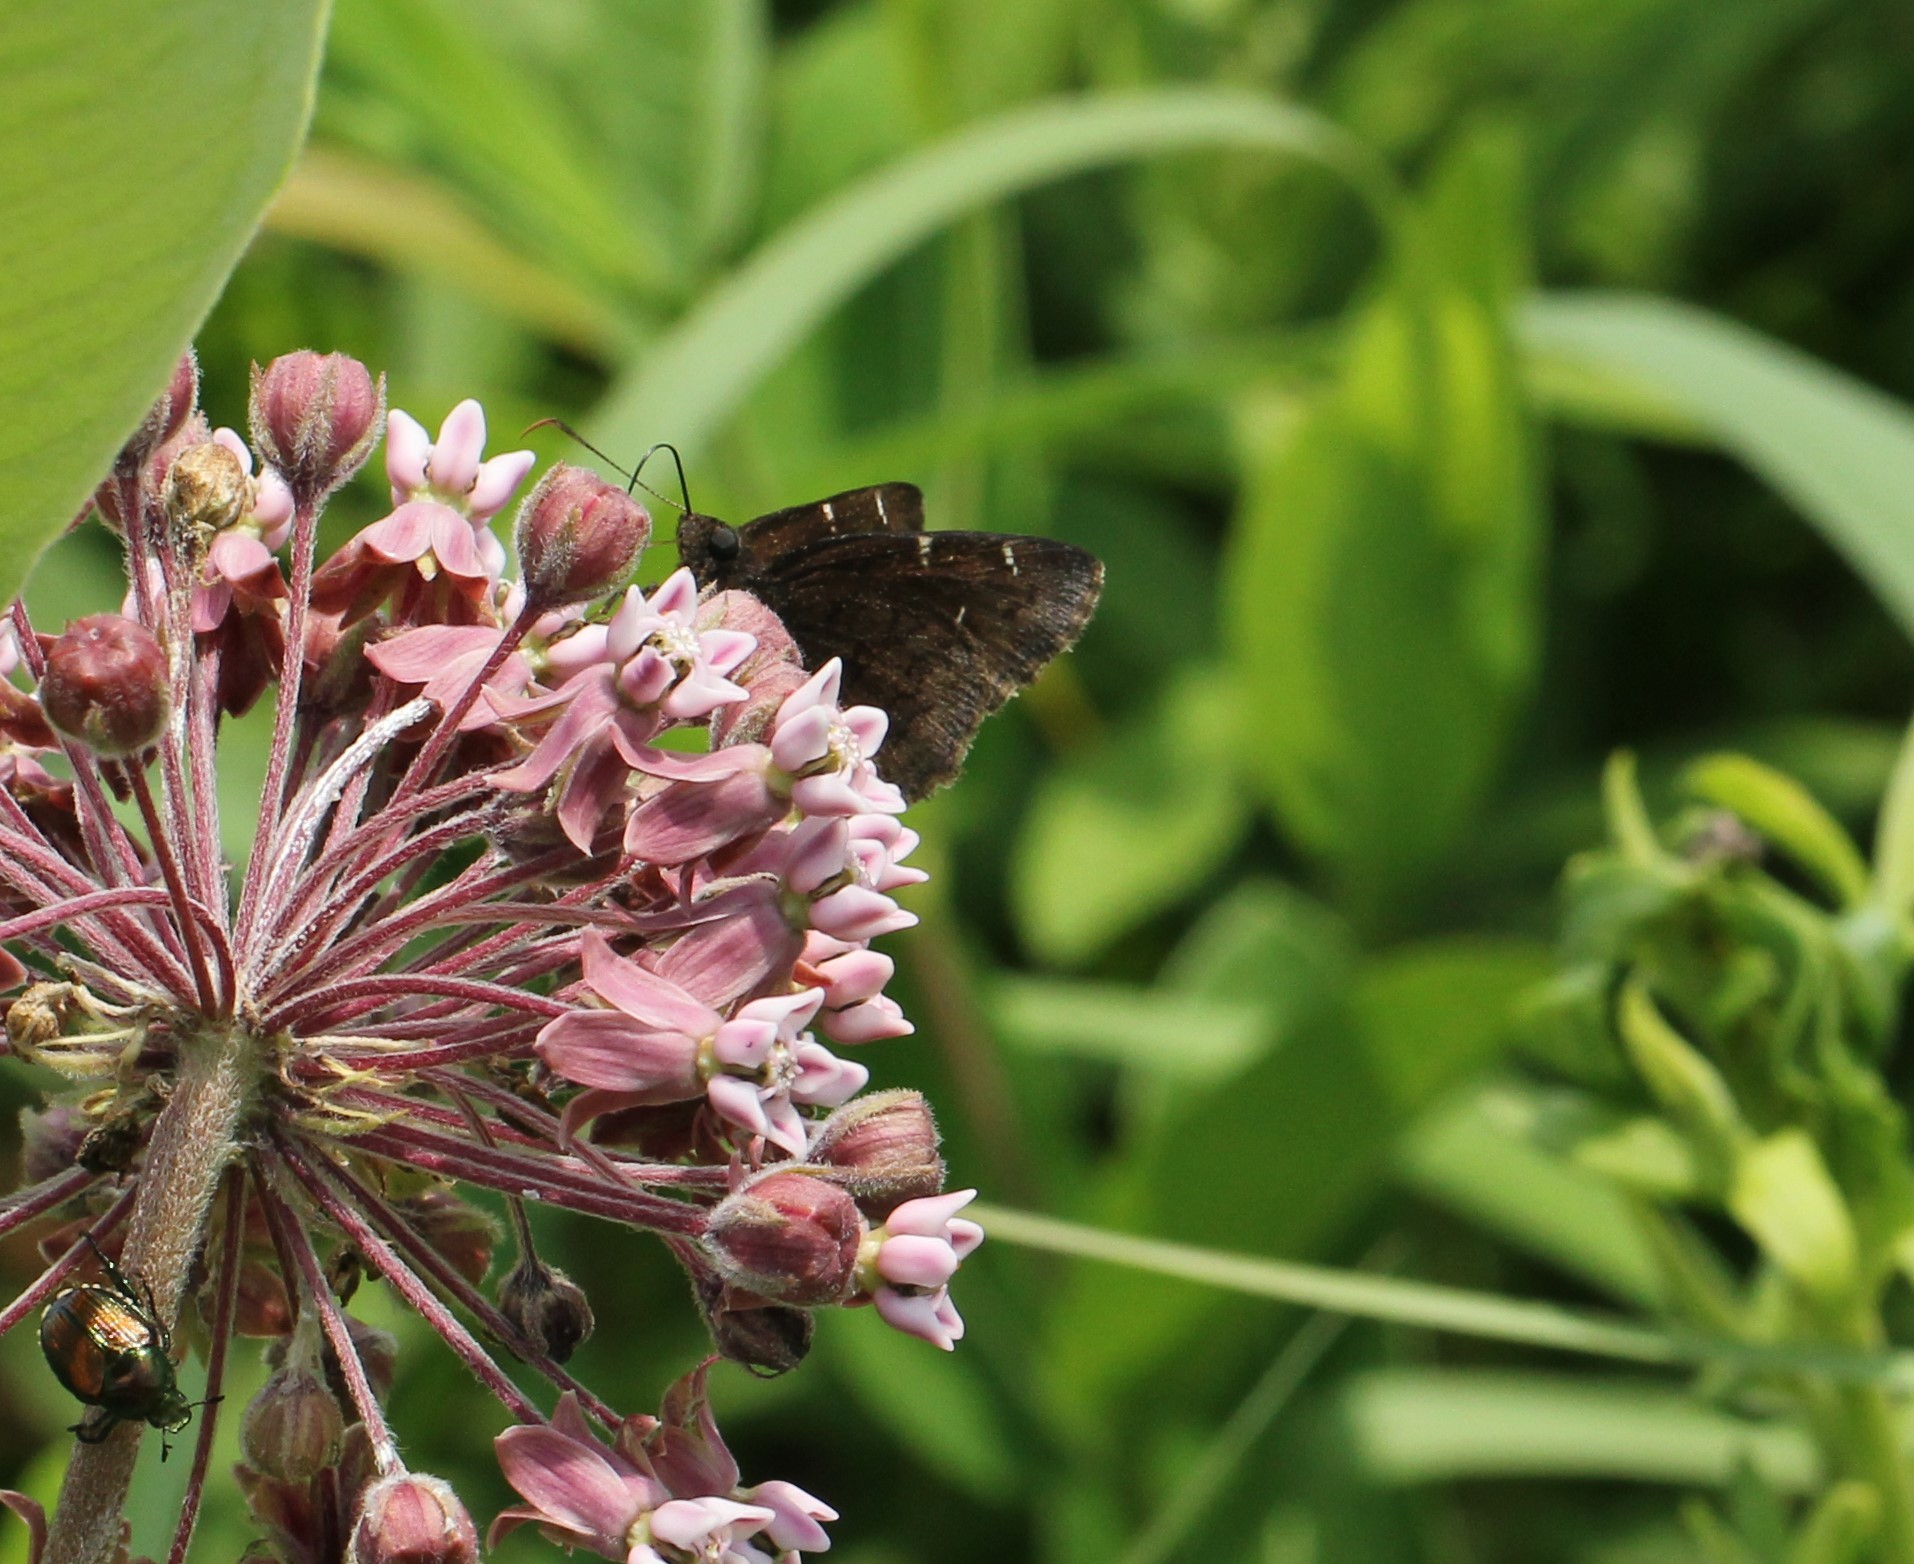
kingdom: Animalia
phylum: Arthropoda
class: Insecta
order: Lepidoptera
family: Hesperiidae
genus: Thorybes
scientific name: Thorybes pylades
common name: Northern cloudywing
